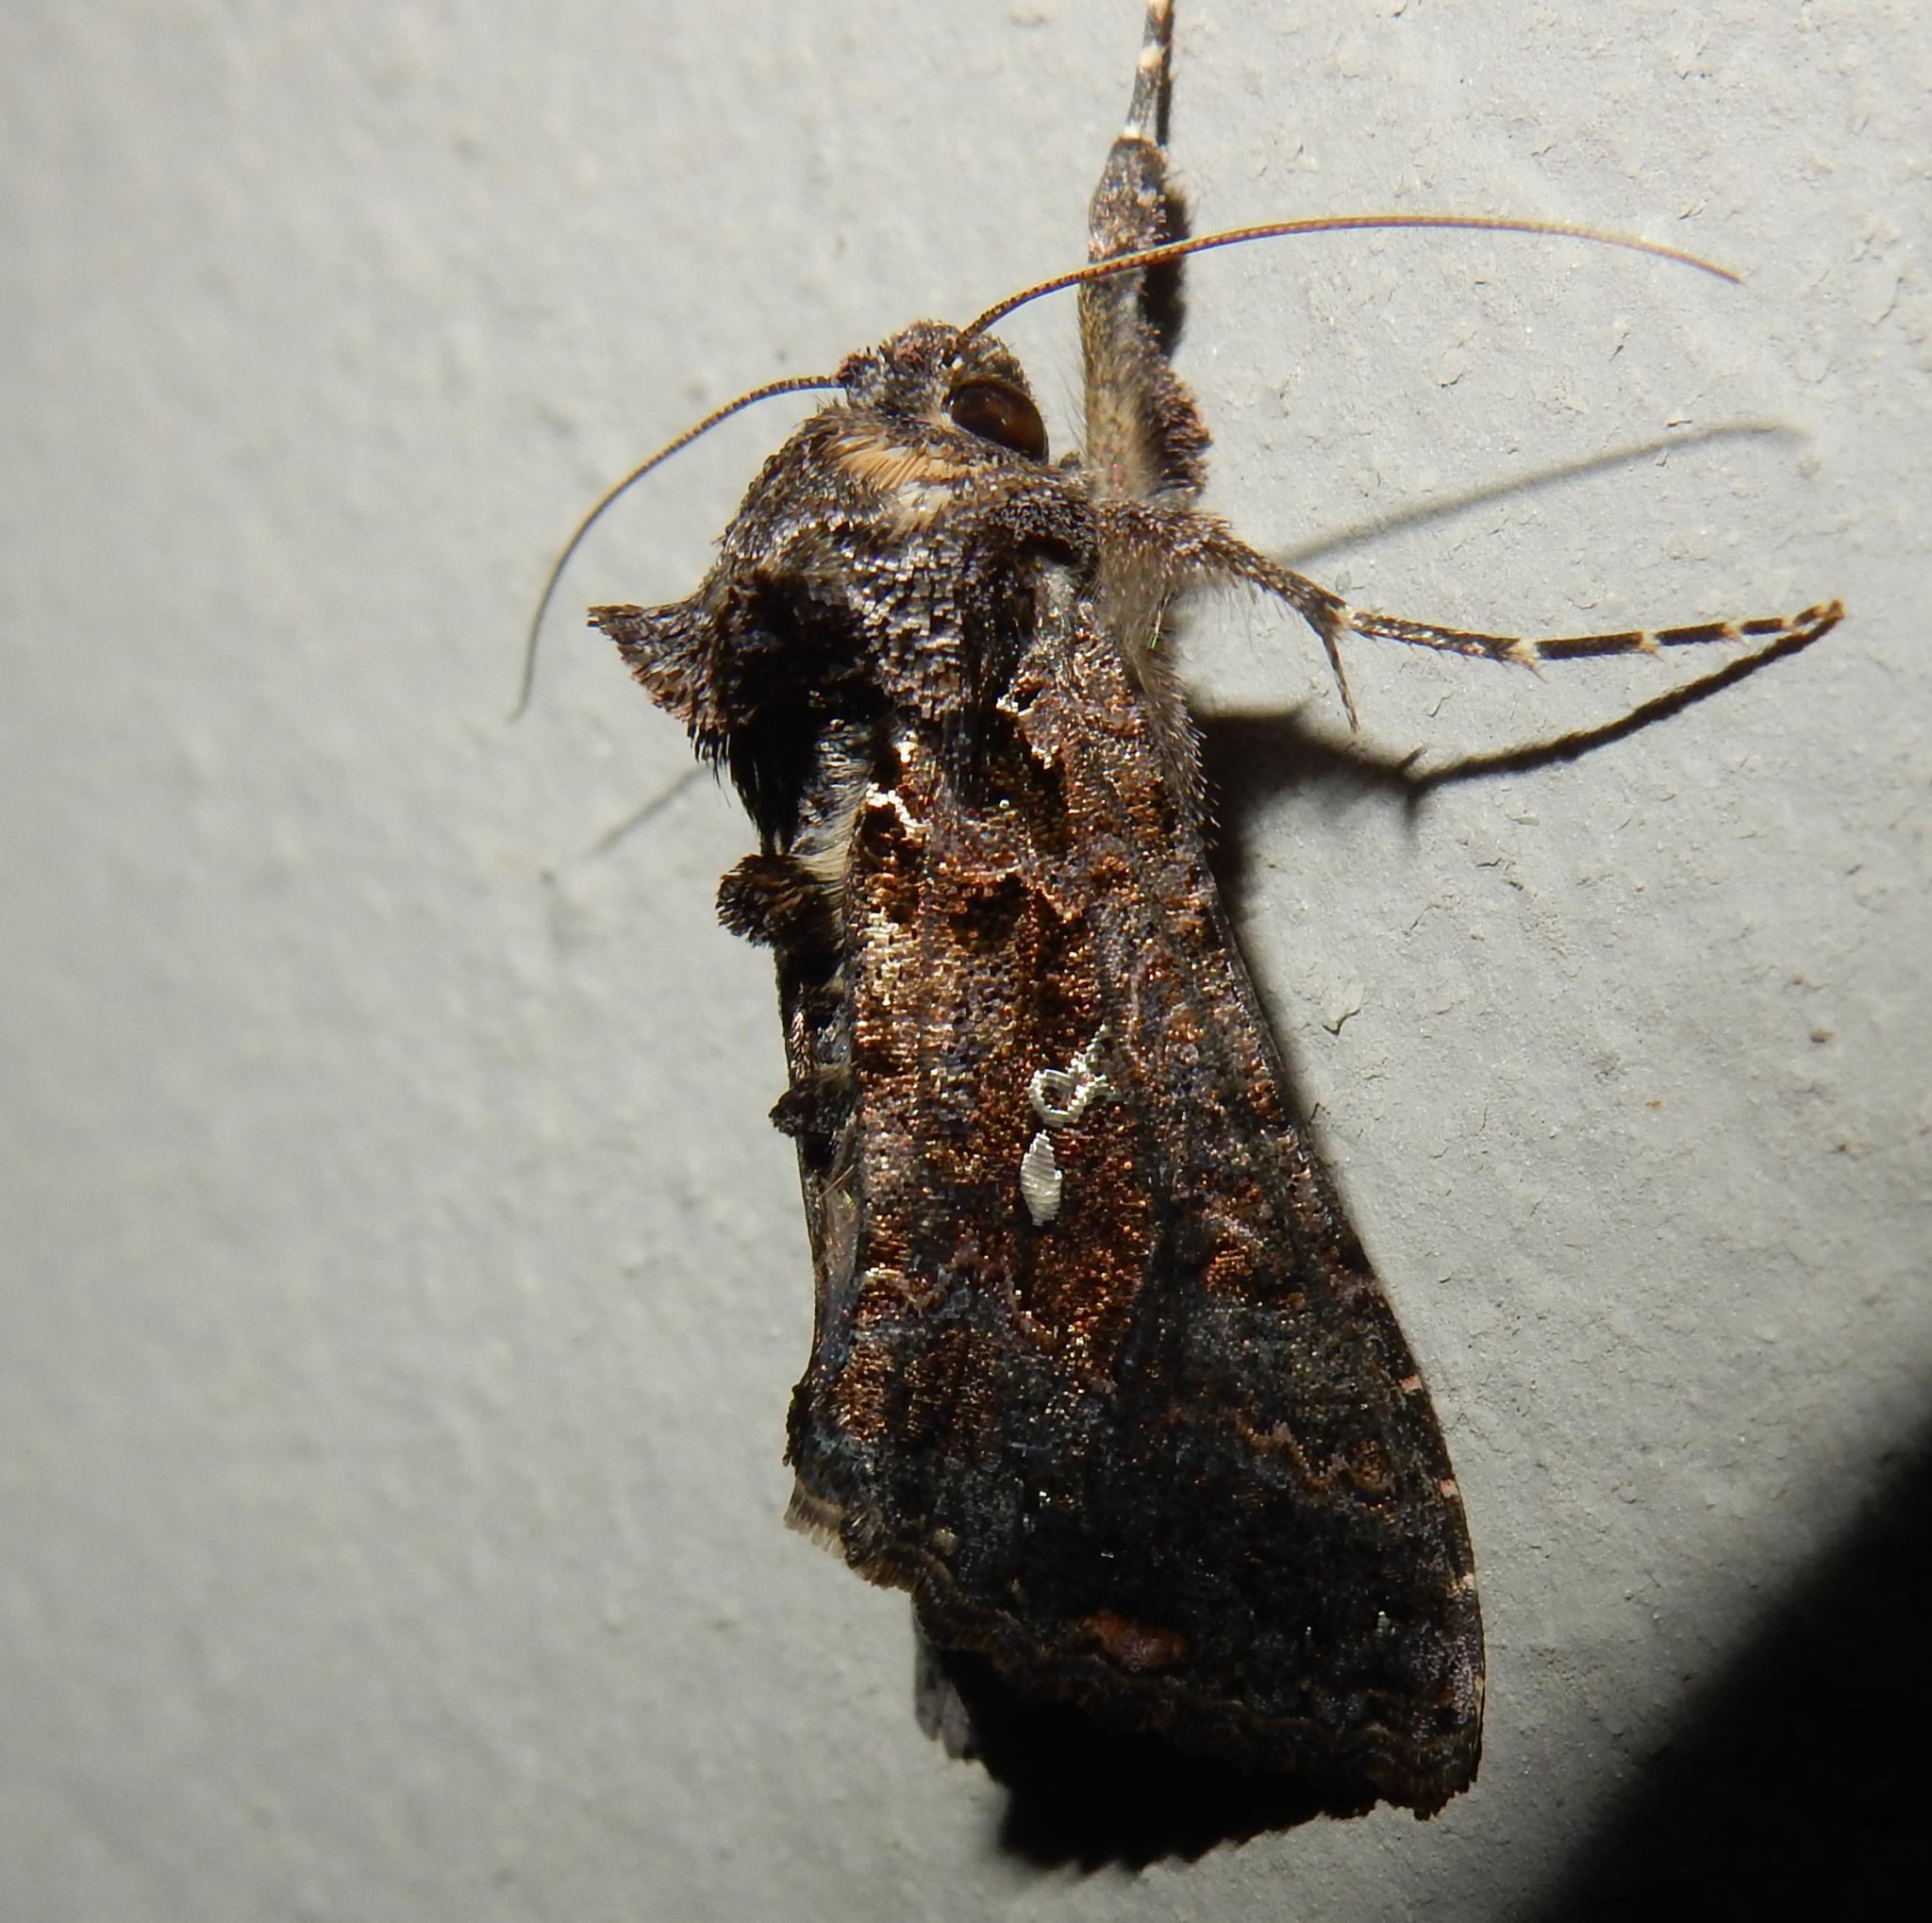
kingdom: Animalia
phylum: Arthropoda
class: Insecta
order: Lepidoptera
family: Noctuidae
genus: Ctenoplusia
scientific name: Ctenoplusia limbirena
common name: Scar bank gem
